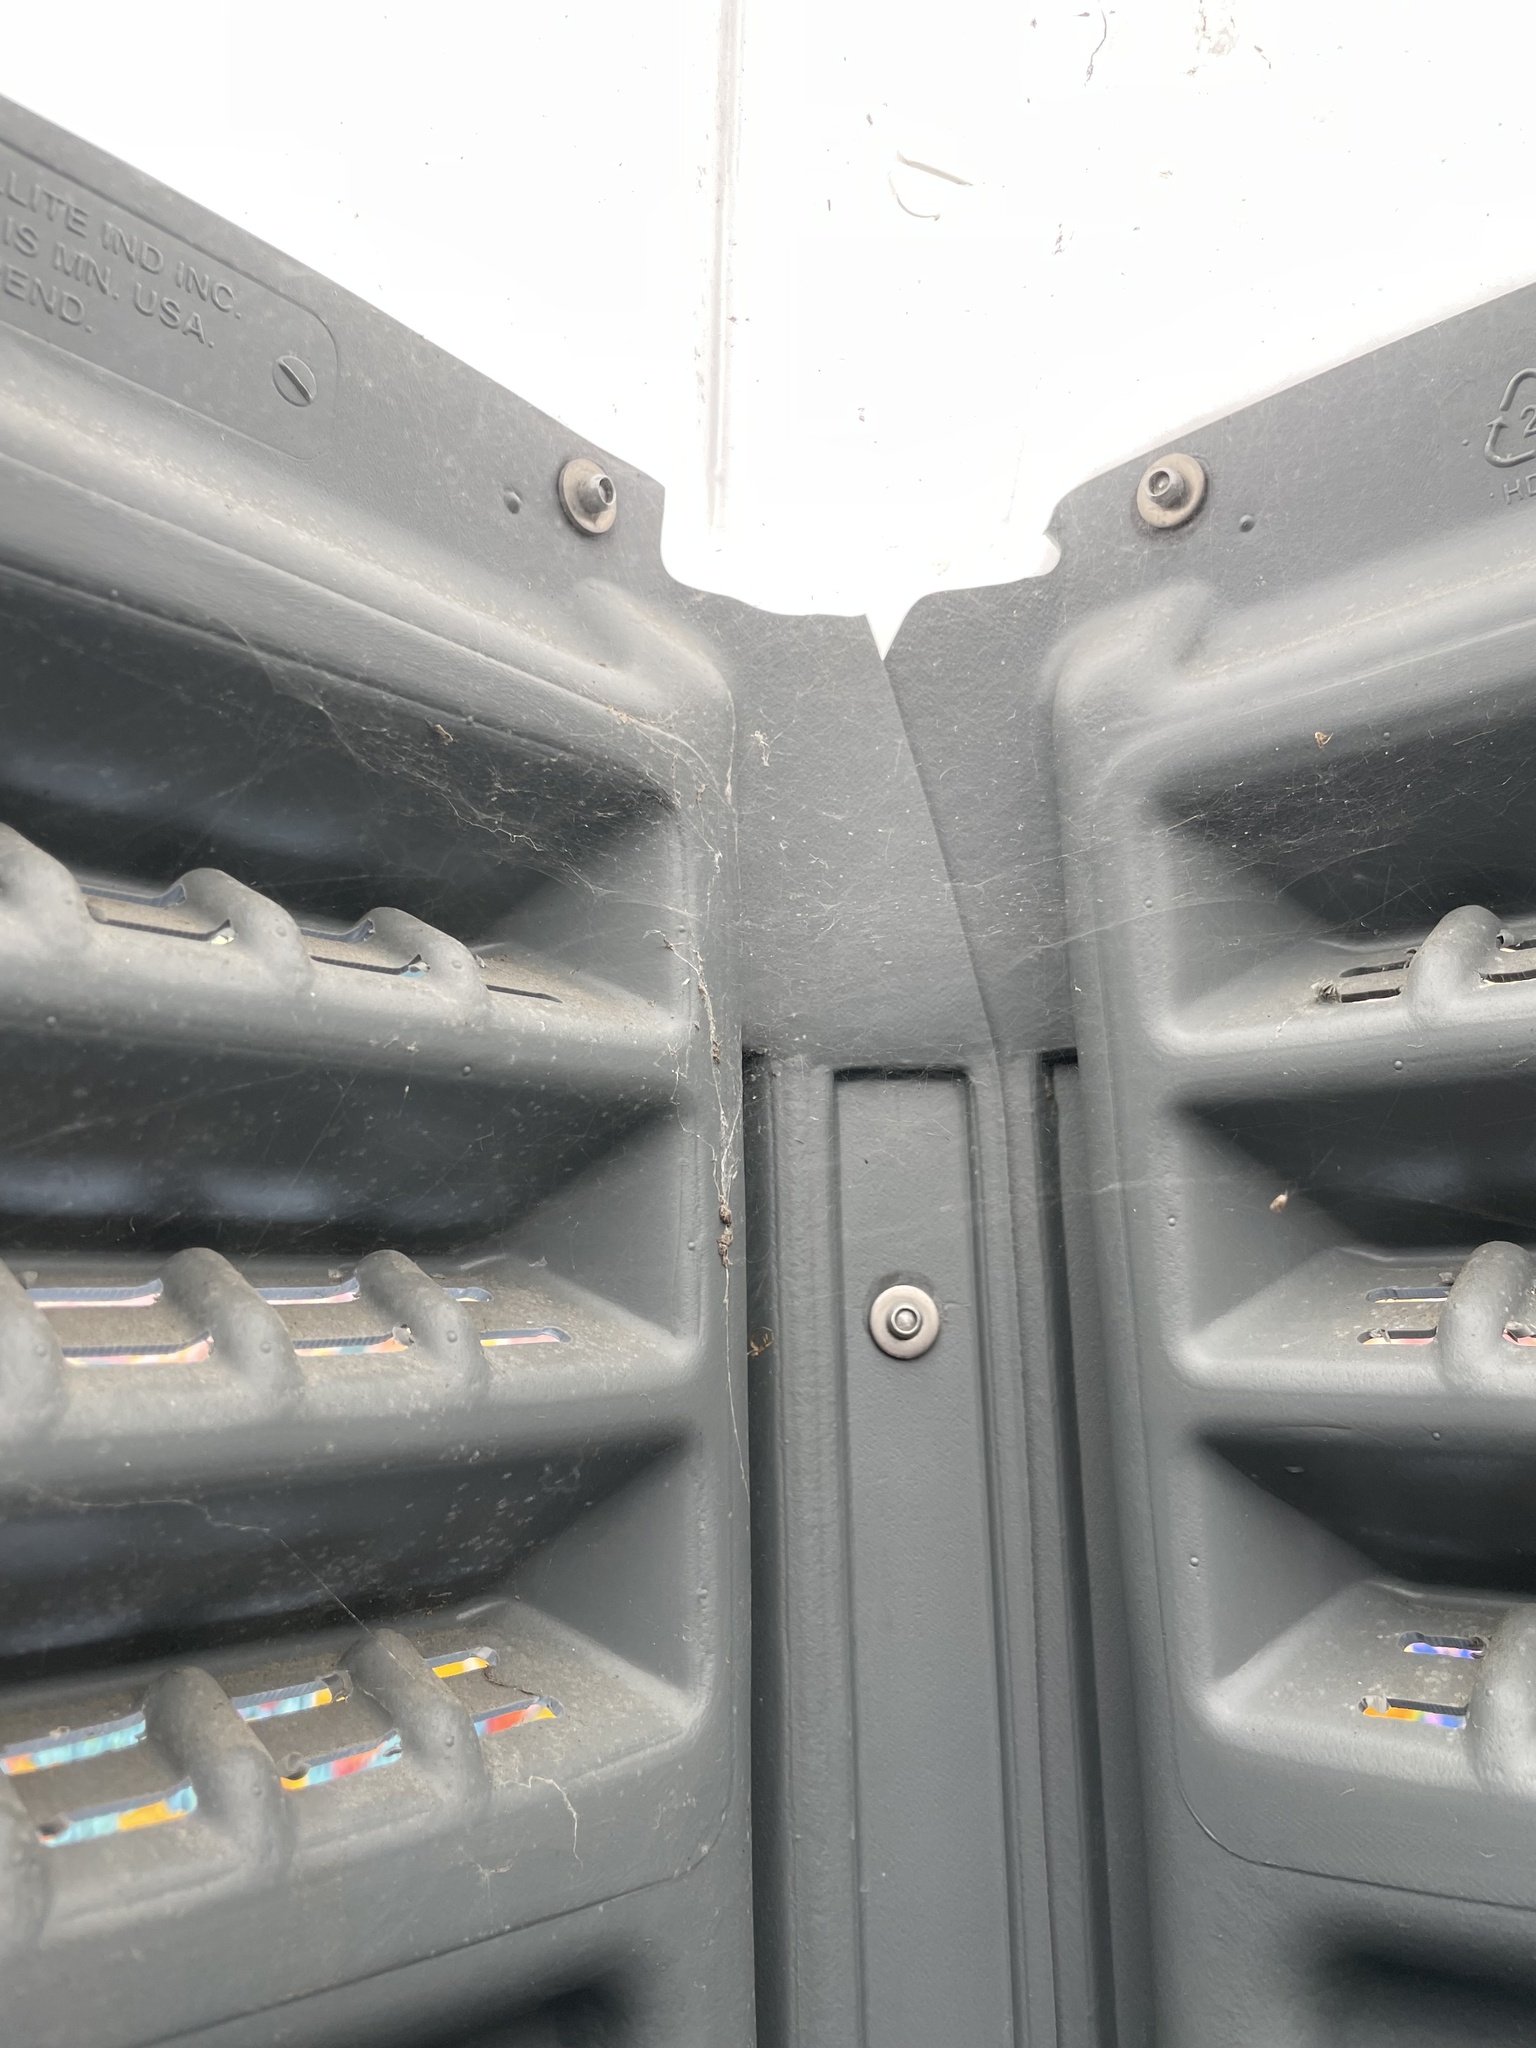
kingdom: Animalia
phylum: Arthropoda
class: Arachnida
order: Araneae
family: Theridiidae
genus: Steatoda
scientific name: Steatoda nobilis
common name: Cobweb weaver
